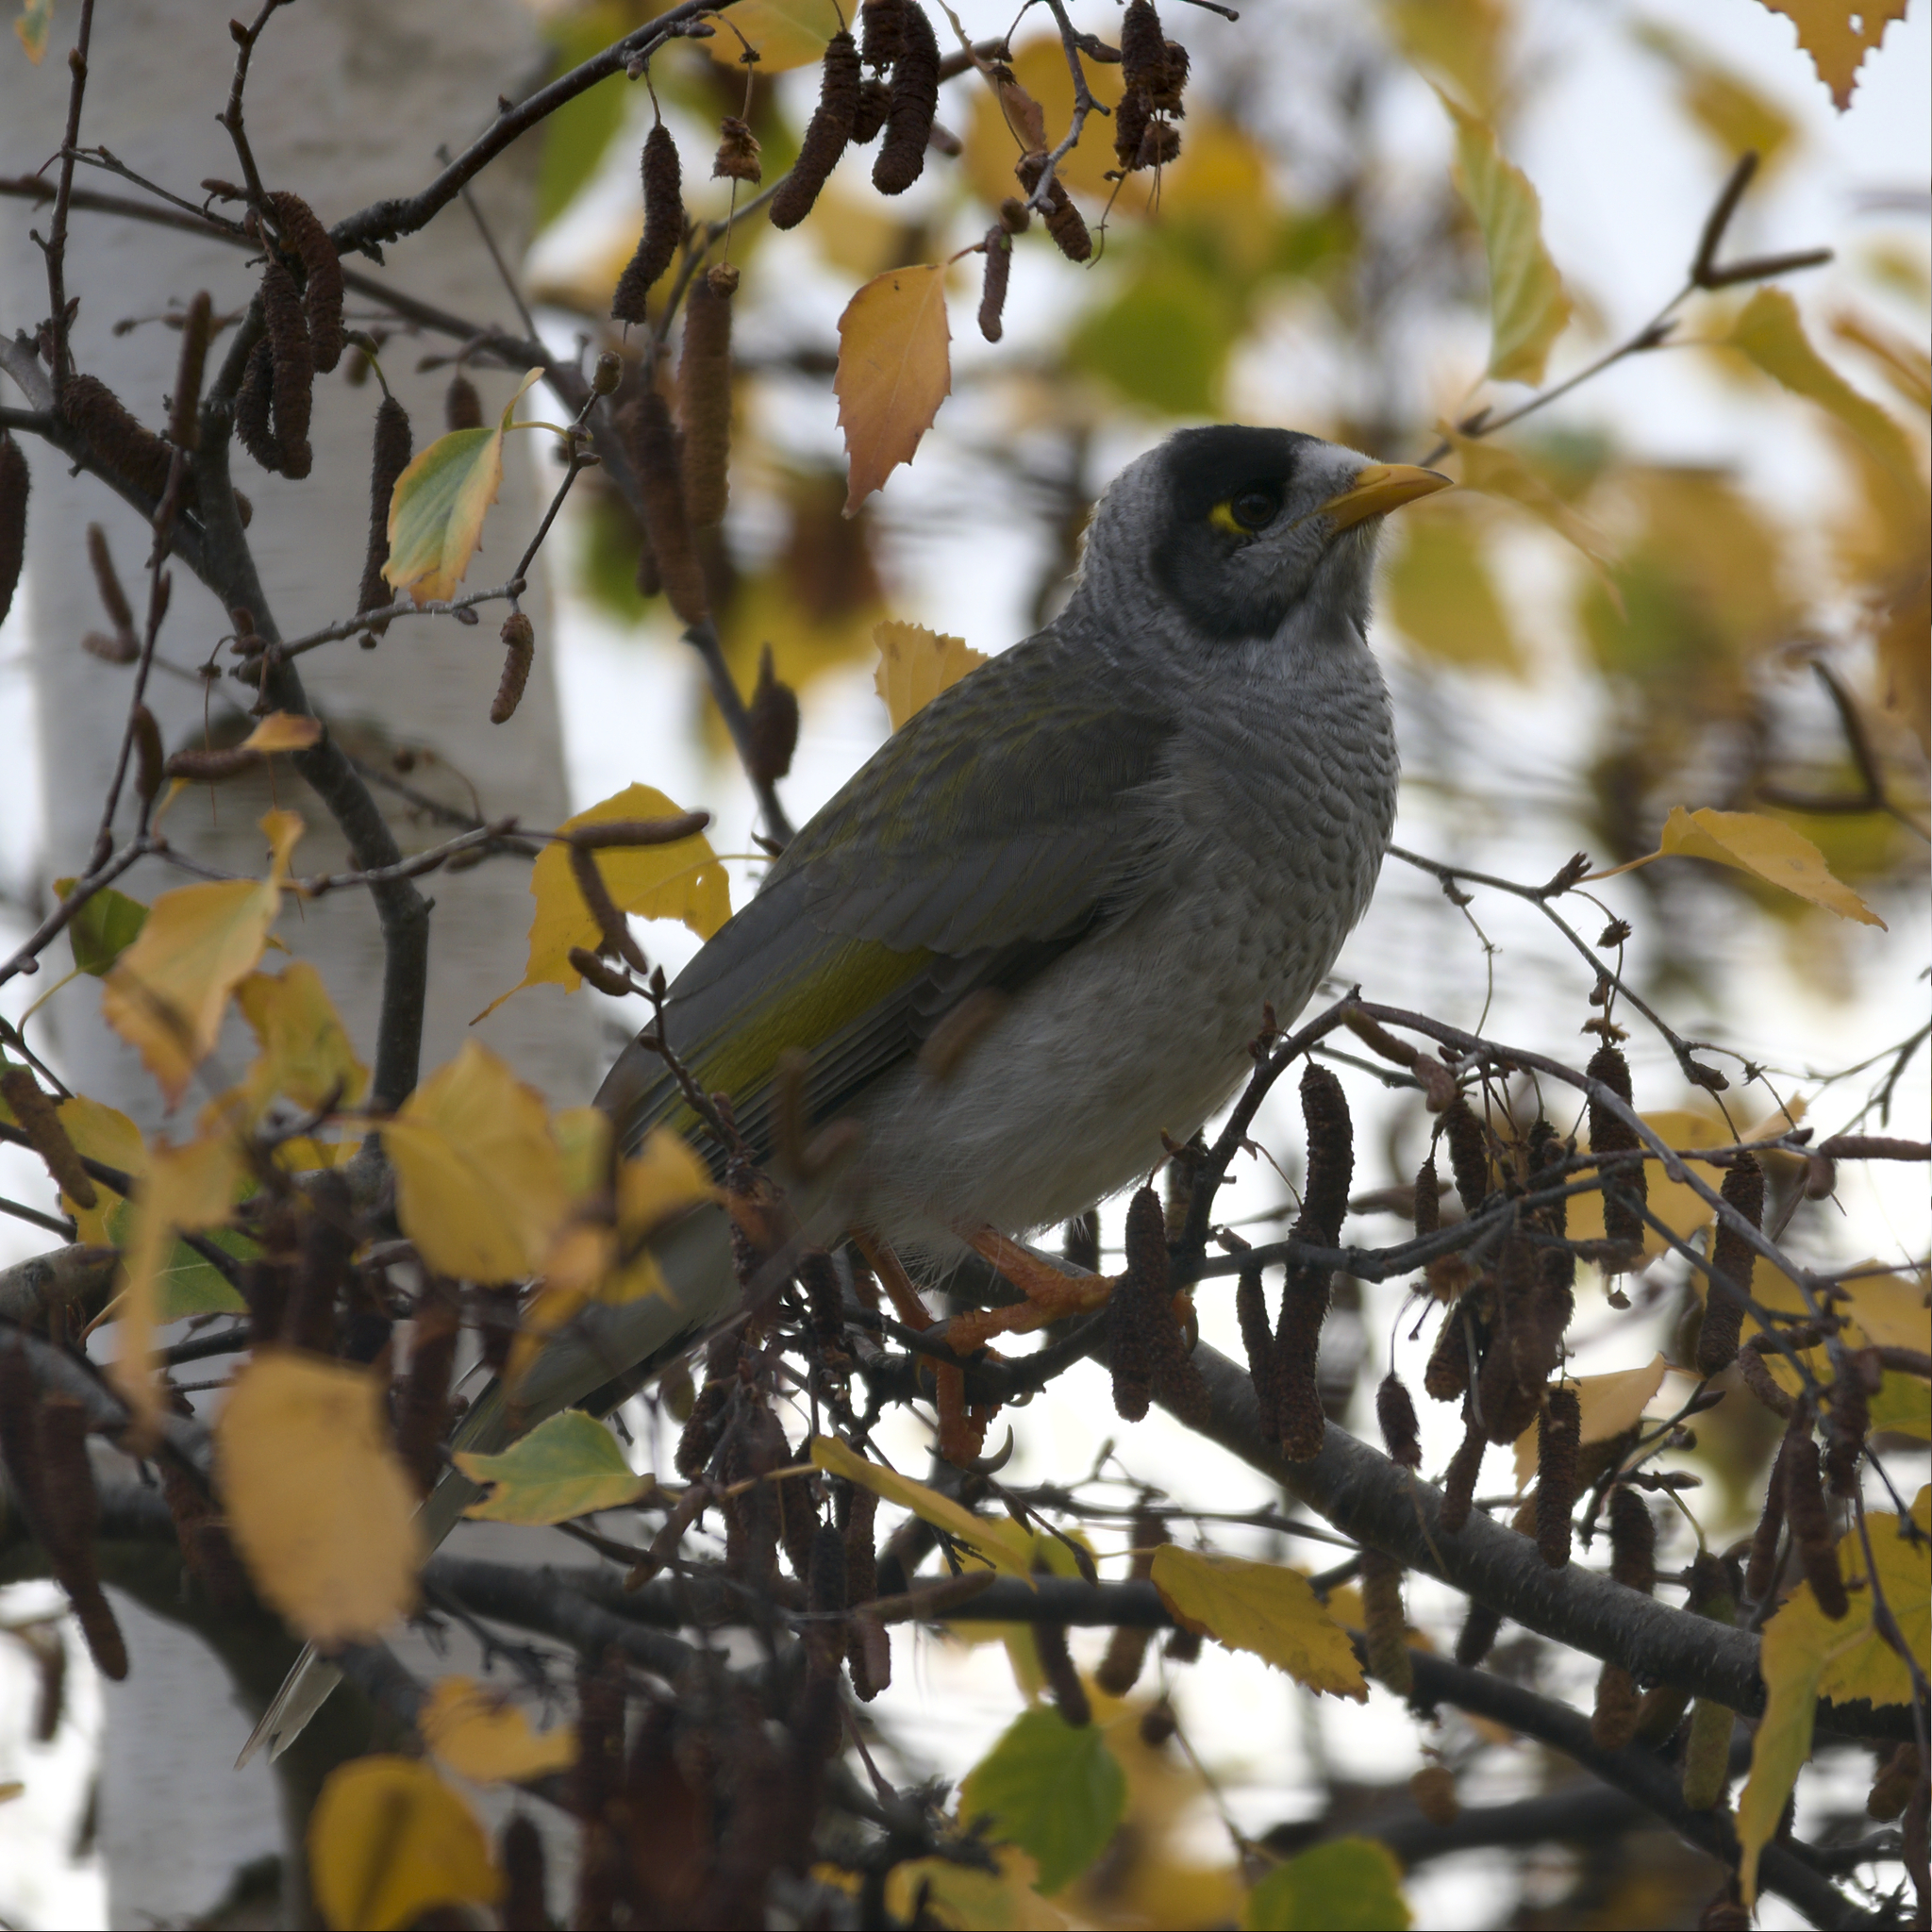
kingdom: Animalia
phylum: Chordata
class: Aves
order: Passeriformes
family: Meliphagidae
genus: Manorina
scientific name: Manorina melanocephala
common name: Noisy miner
